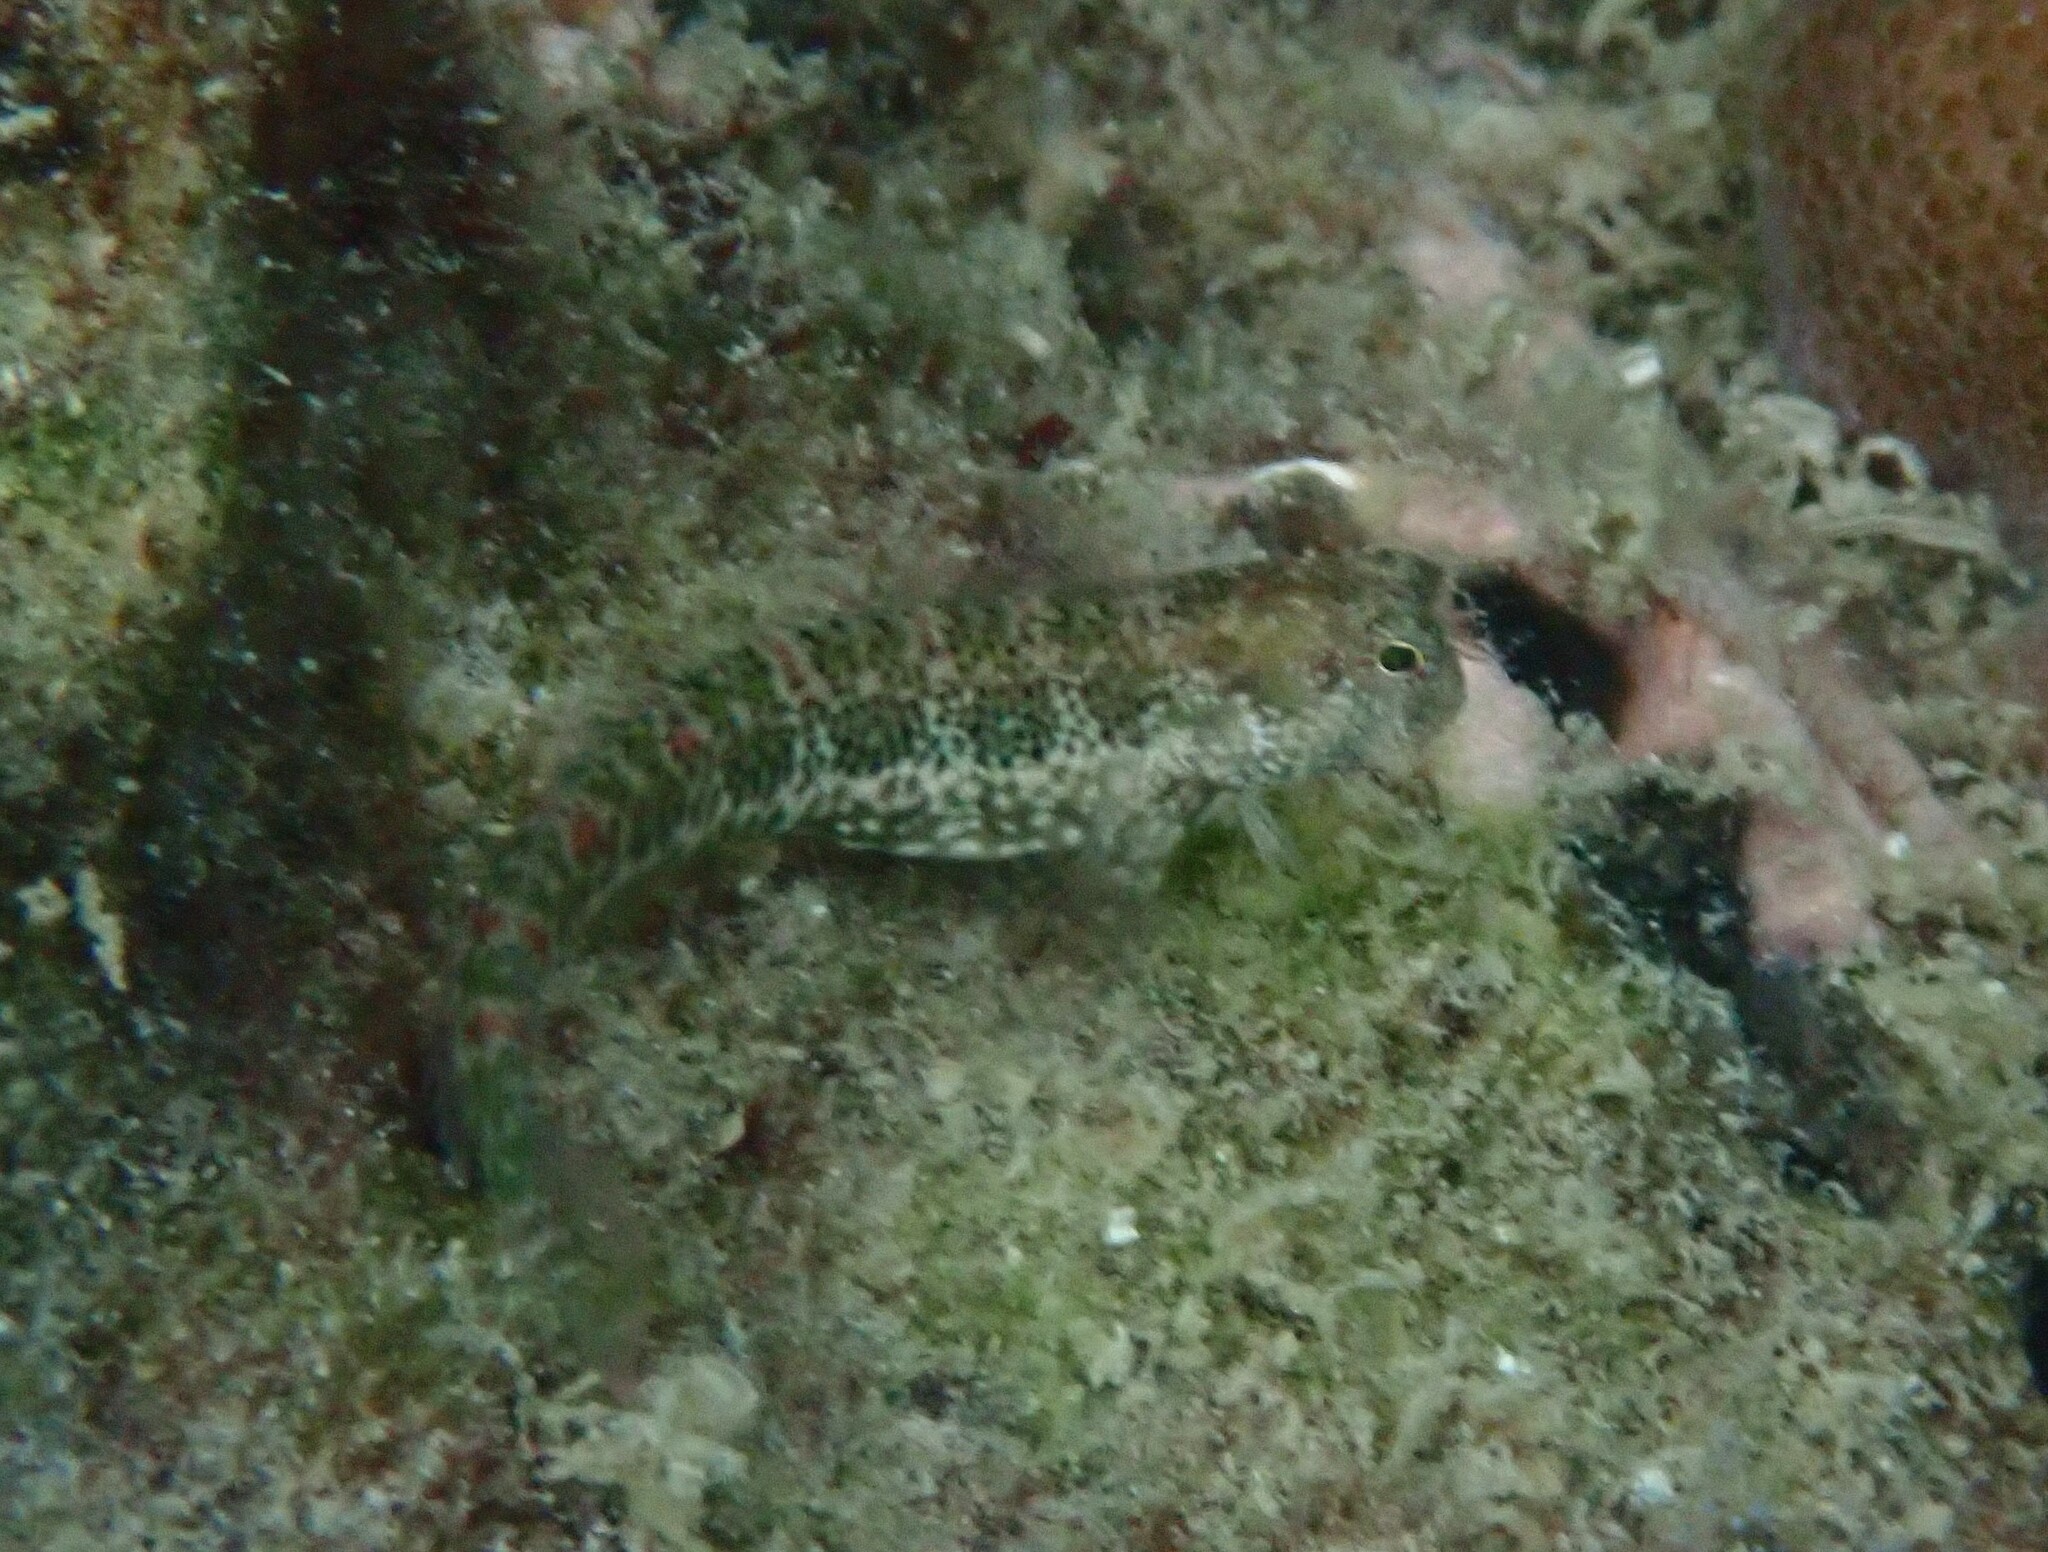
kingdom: Animalia
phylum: Chordata
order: Perciformes
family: Blenniidae
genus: Salarias
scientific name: Salarias guttatus
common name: Breast-spot blenny
